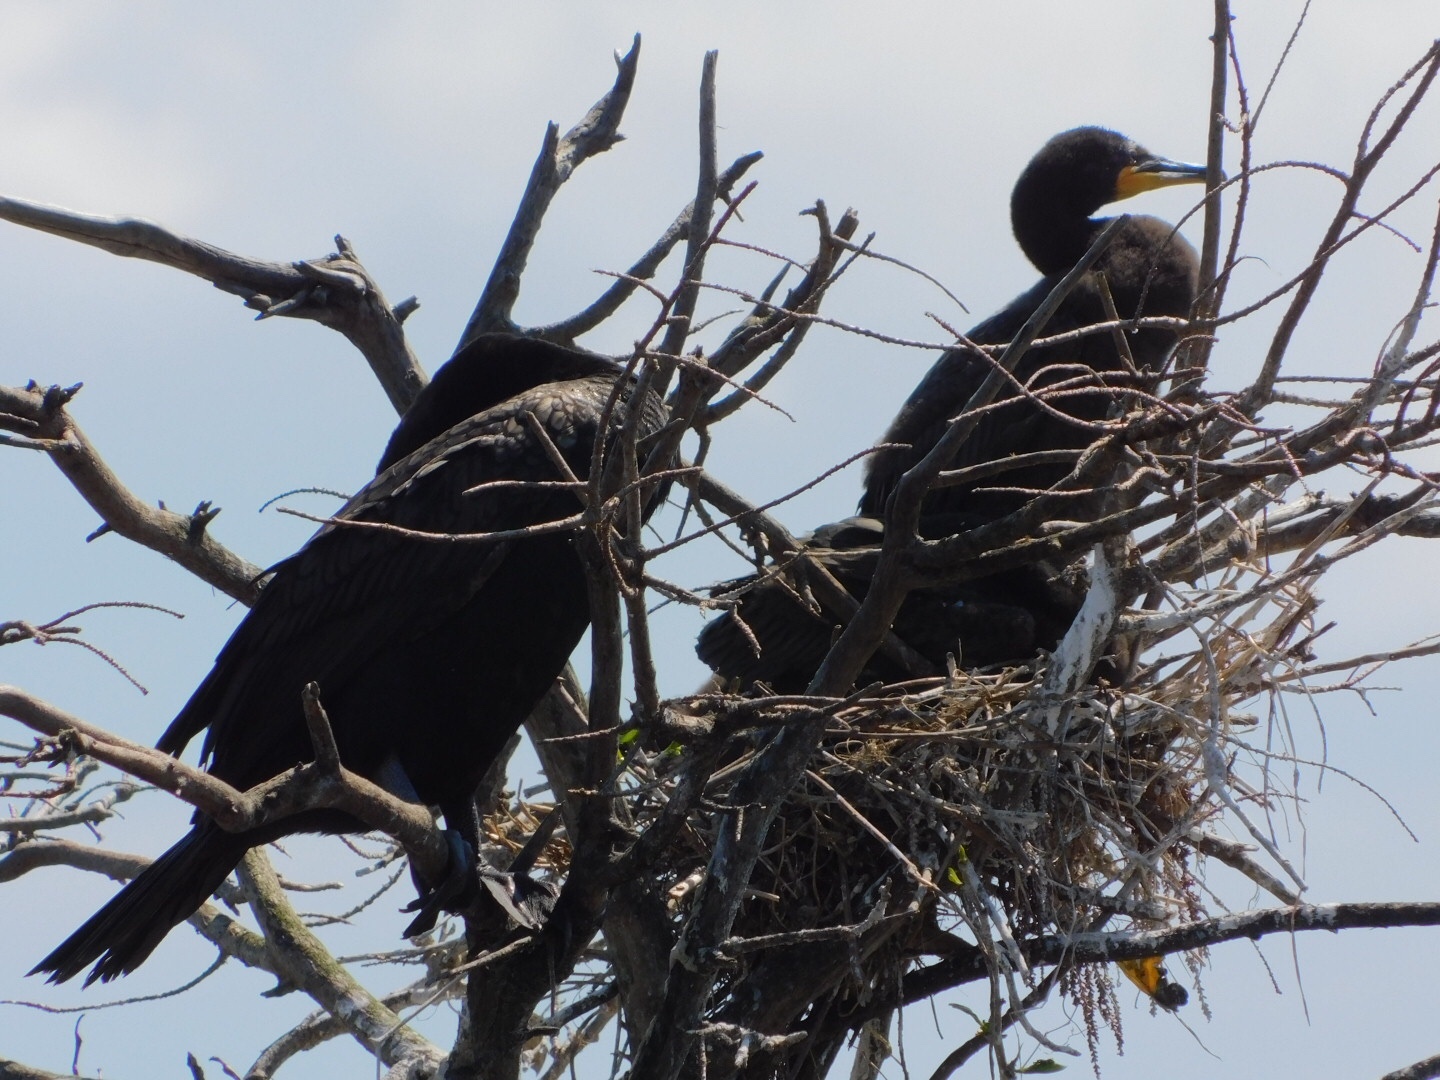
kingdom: Animalia
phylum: Chordata
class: Aves
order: Suliformes
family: Phalacrocoracidae
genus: Phalacrocorax
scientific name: Phalacrocorax auritus
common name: Double-crested cormorant
